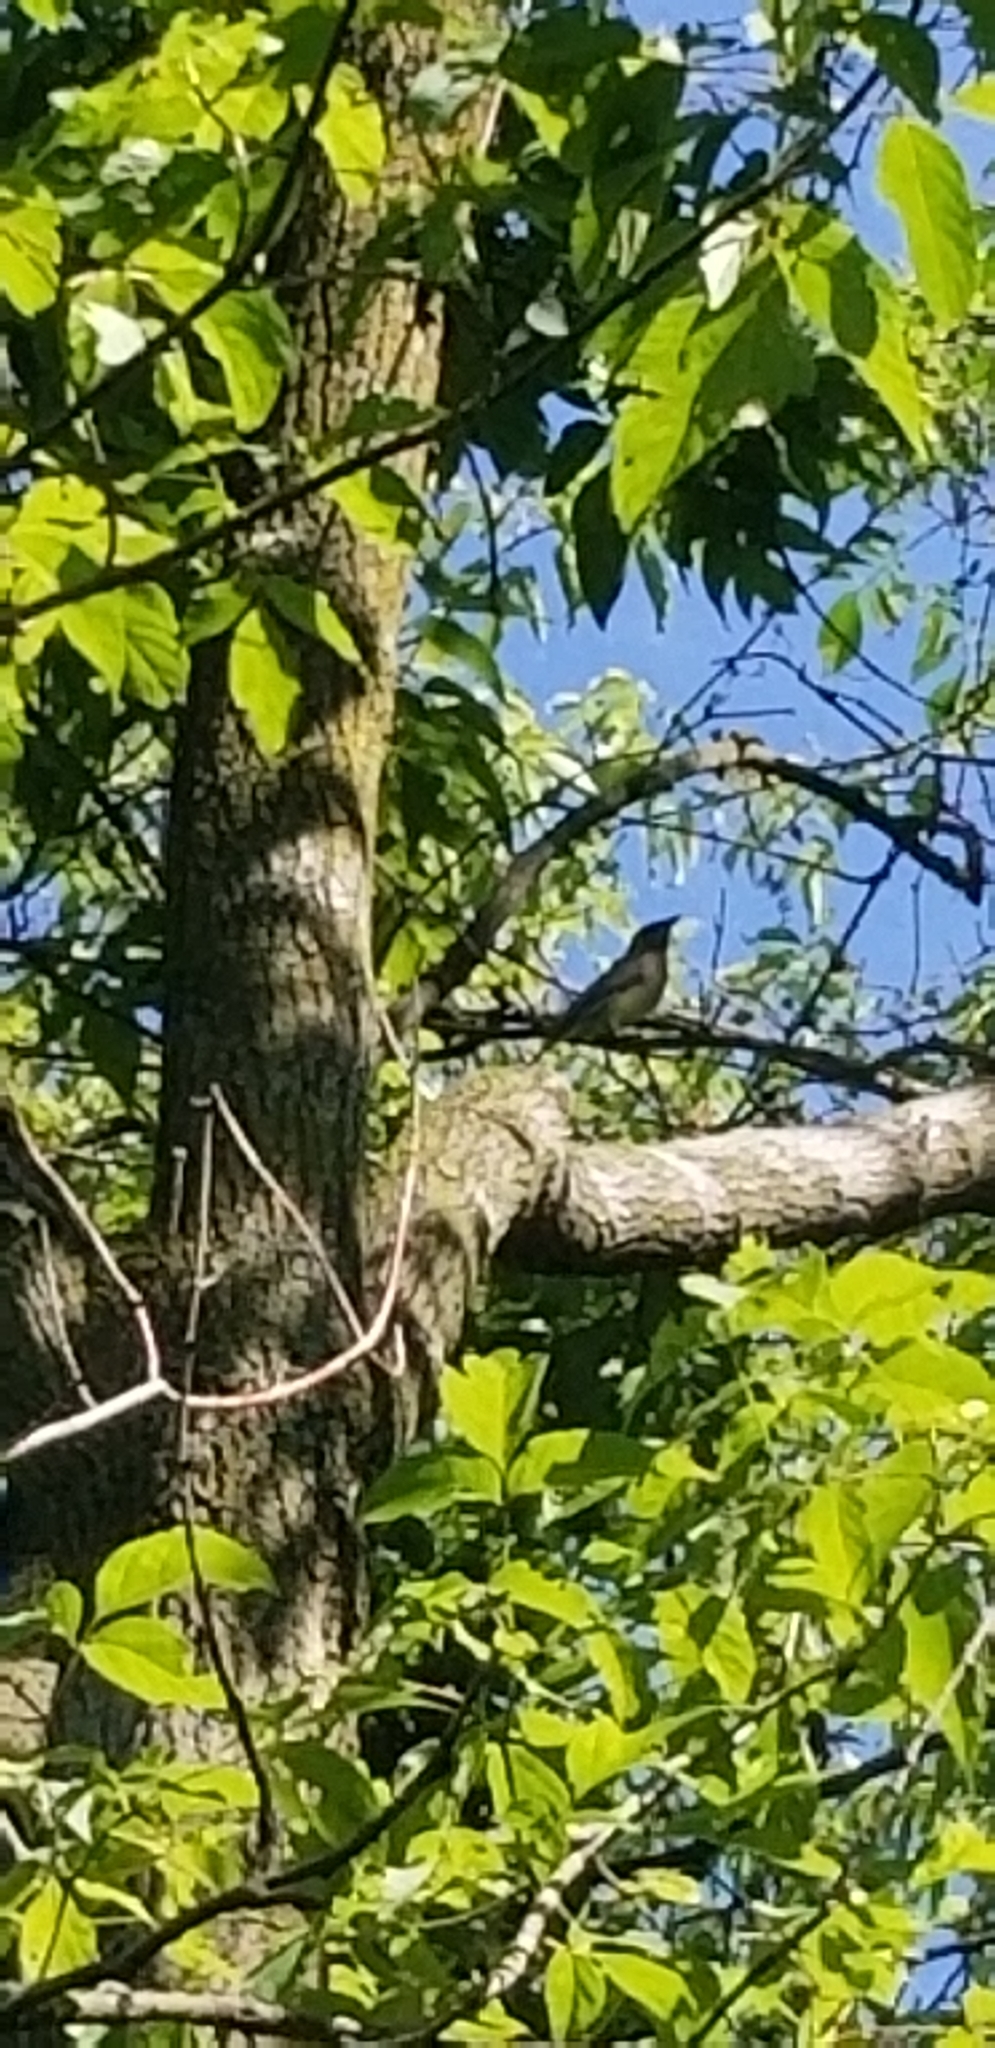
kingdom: Animalia
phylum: Chordata
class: Aves
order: Passeriformes
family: Bombycillidae
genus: Bombycilla
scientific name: Bombycilla cedrorum
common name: Cedar waxwing
